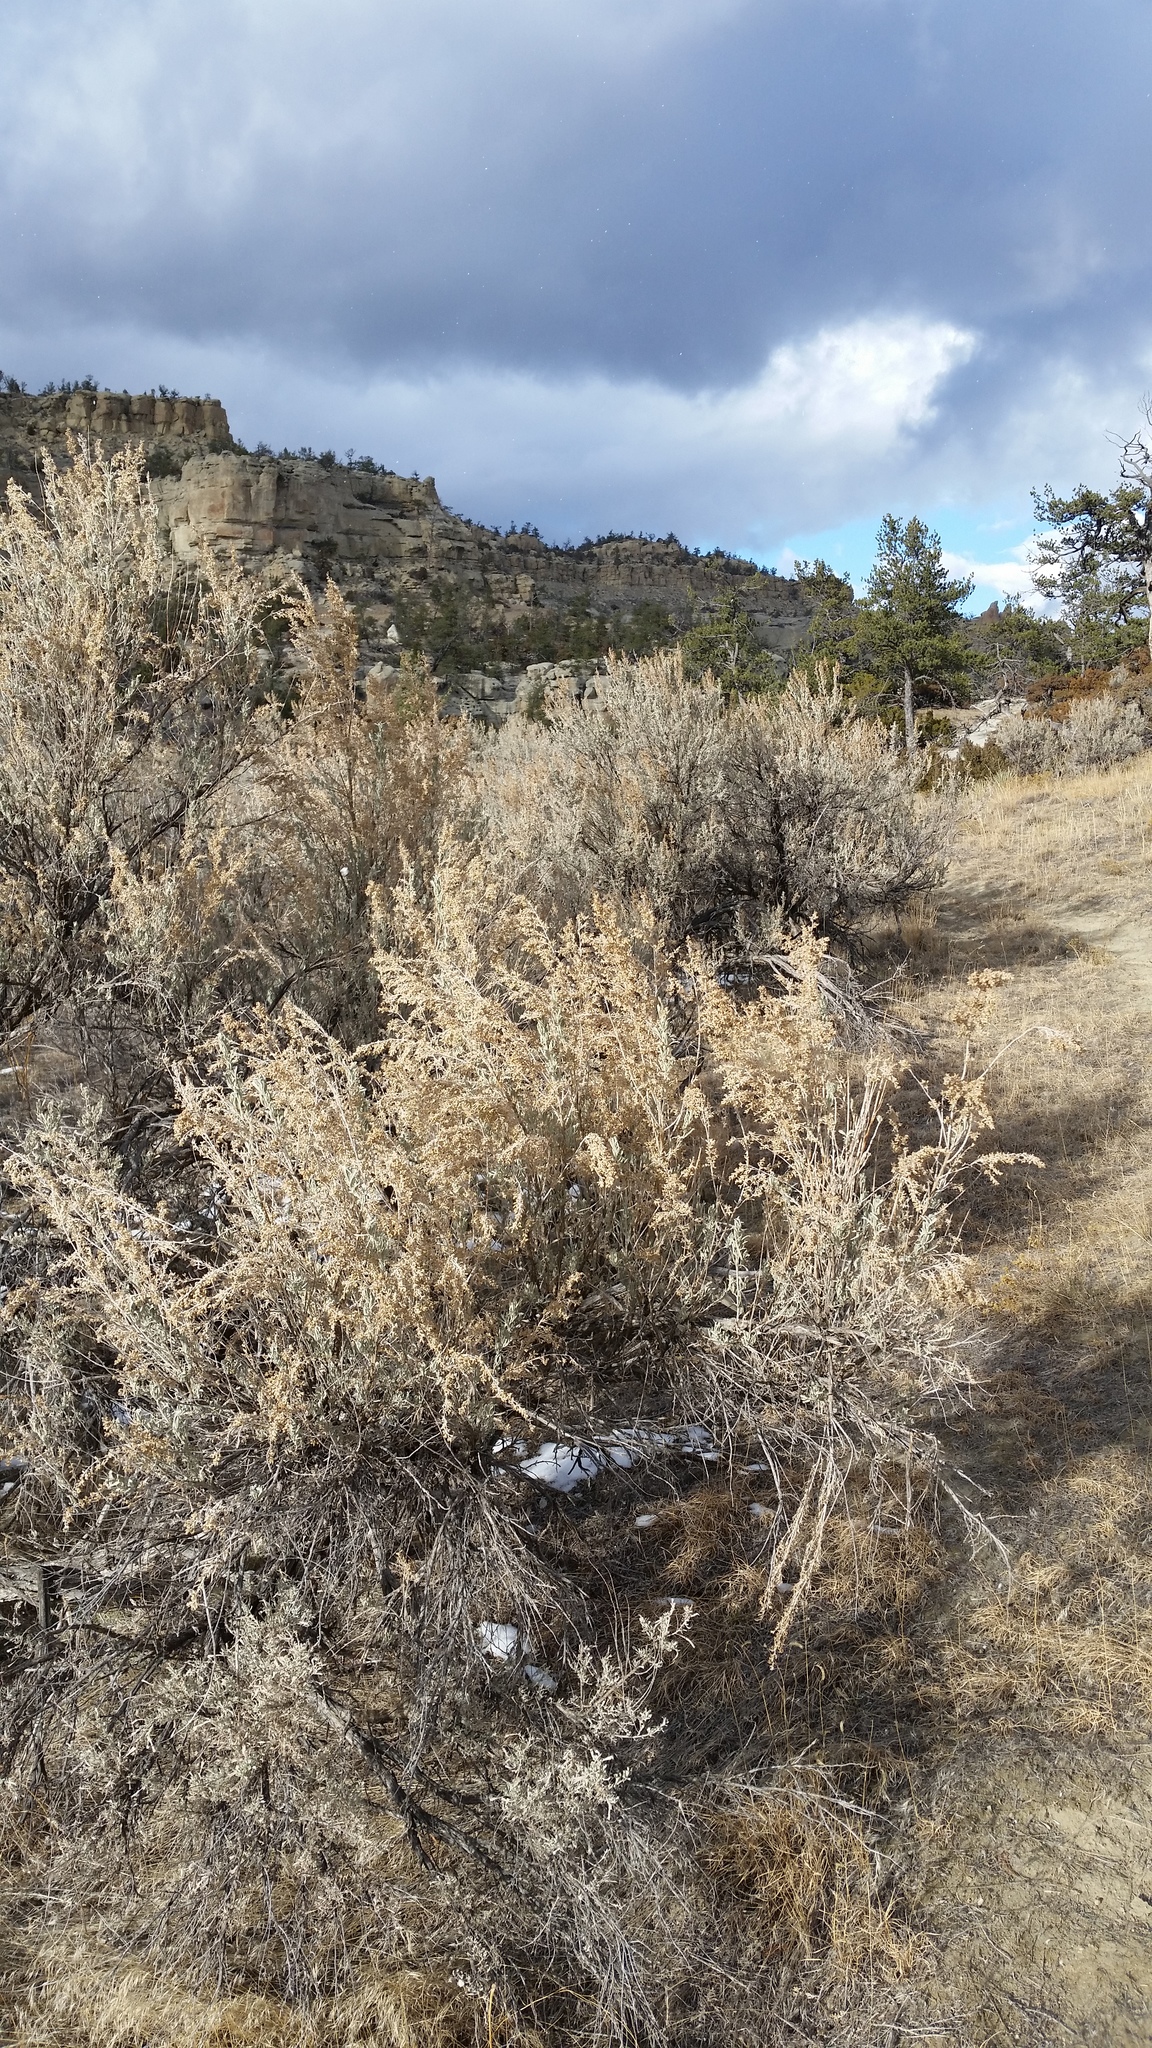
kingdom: Plantae
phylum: Tracheophyta
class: Magnoliopsida
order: Asterales
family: Asteraceae
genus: Artemisia
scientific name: Artemisia tridentata
